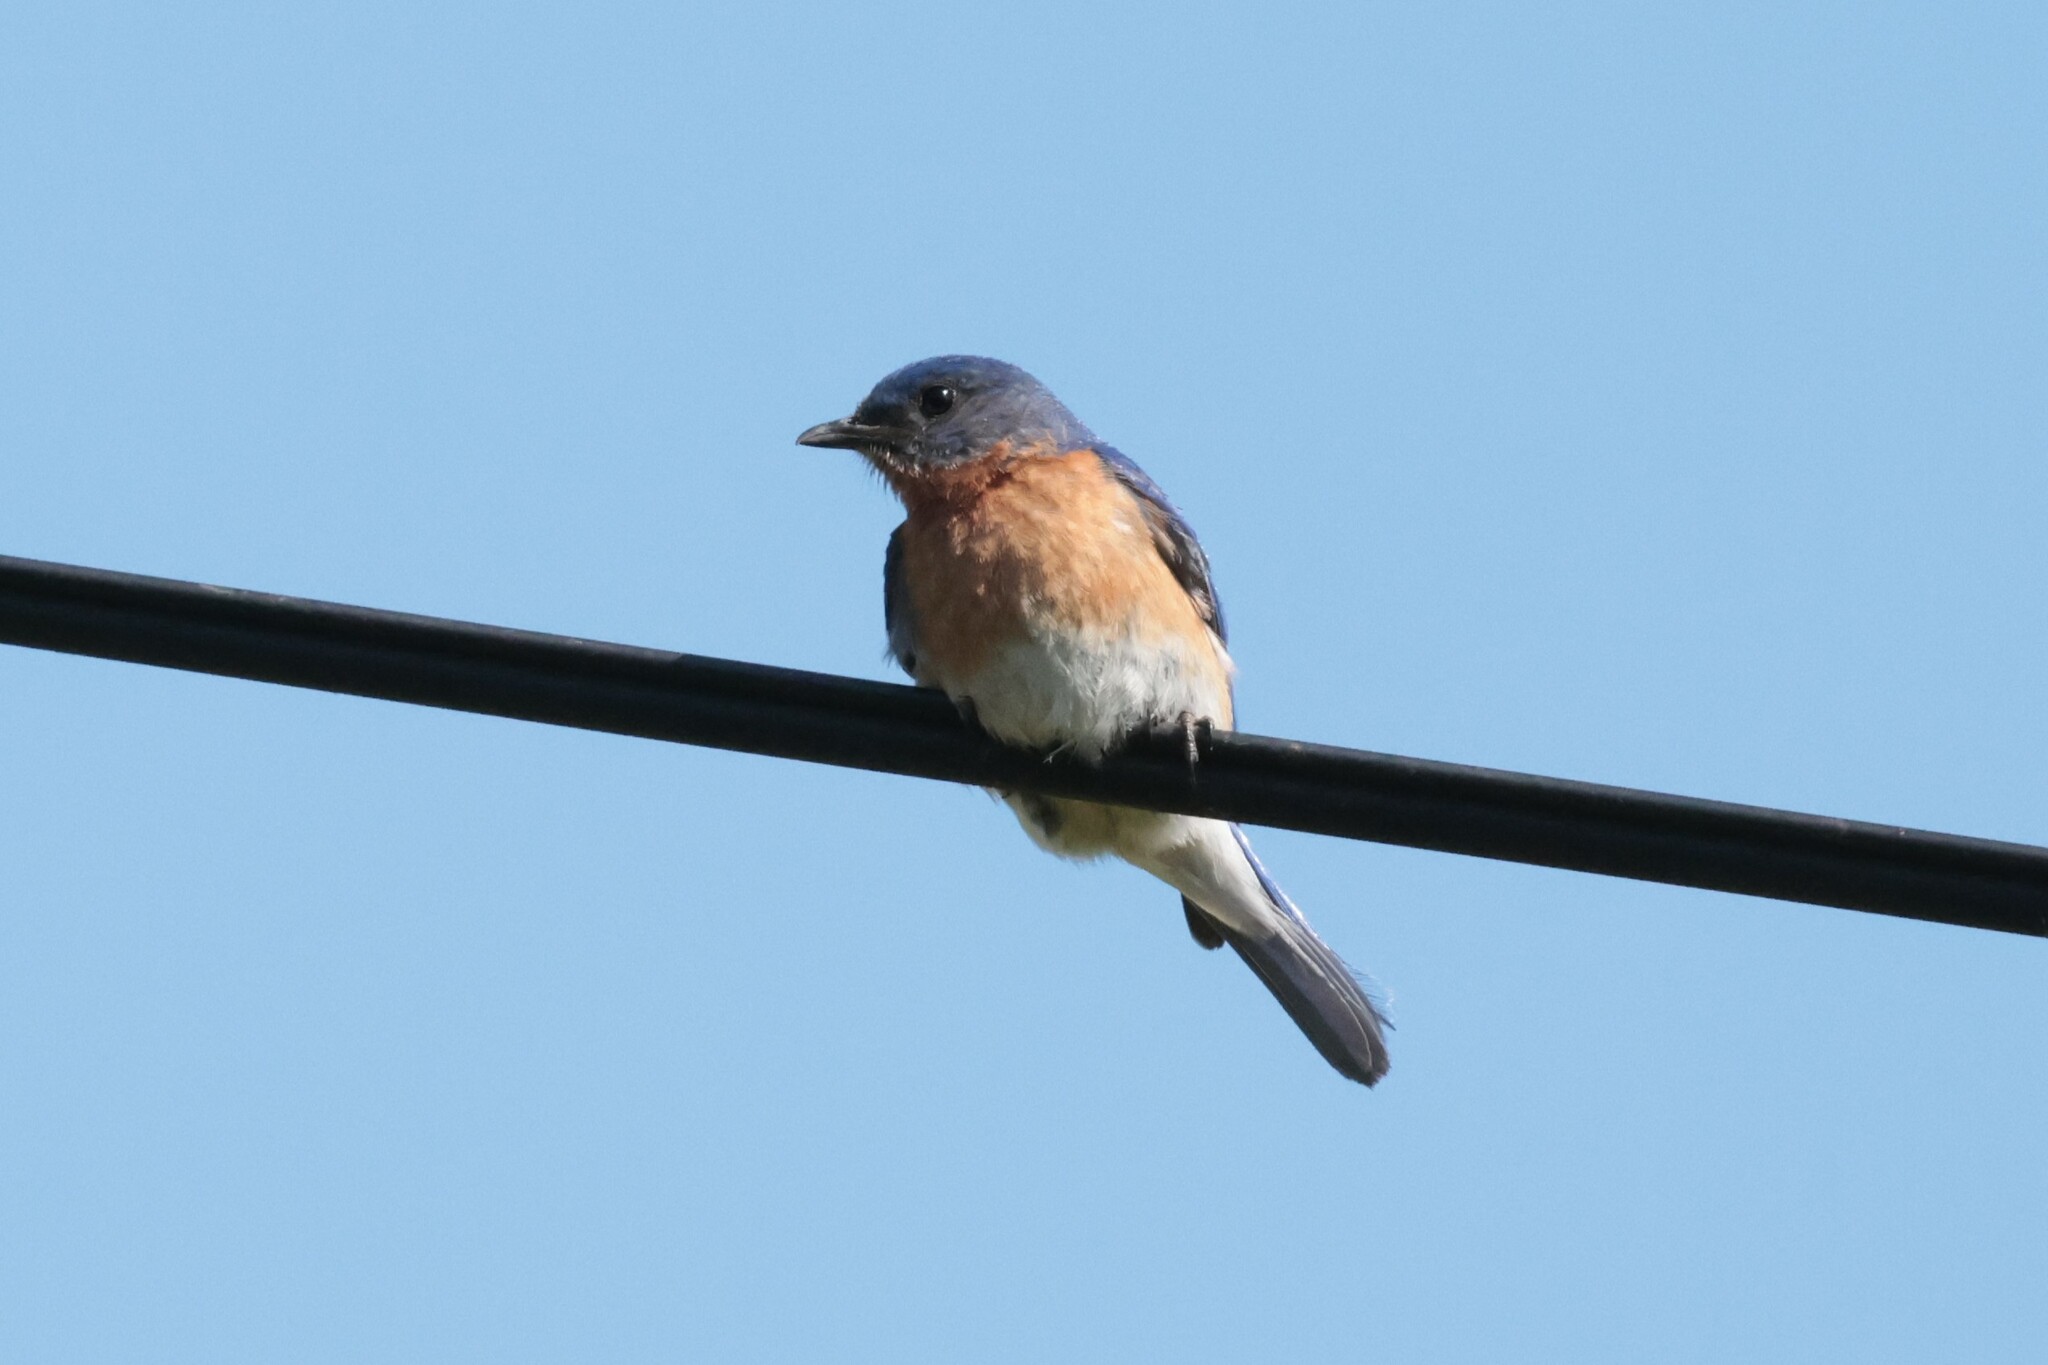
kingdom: Animalia
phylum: Chordata
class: Aves
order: Passeriformes
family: Turdidae
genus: Sialia
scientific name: Sialia sialis
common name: Eastern bluebird
